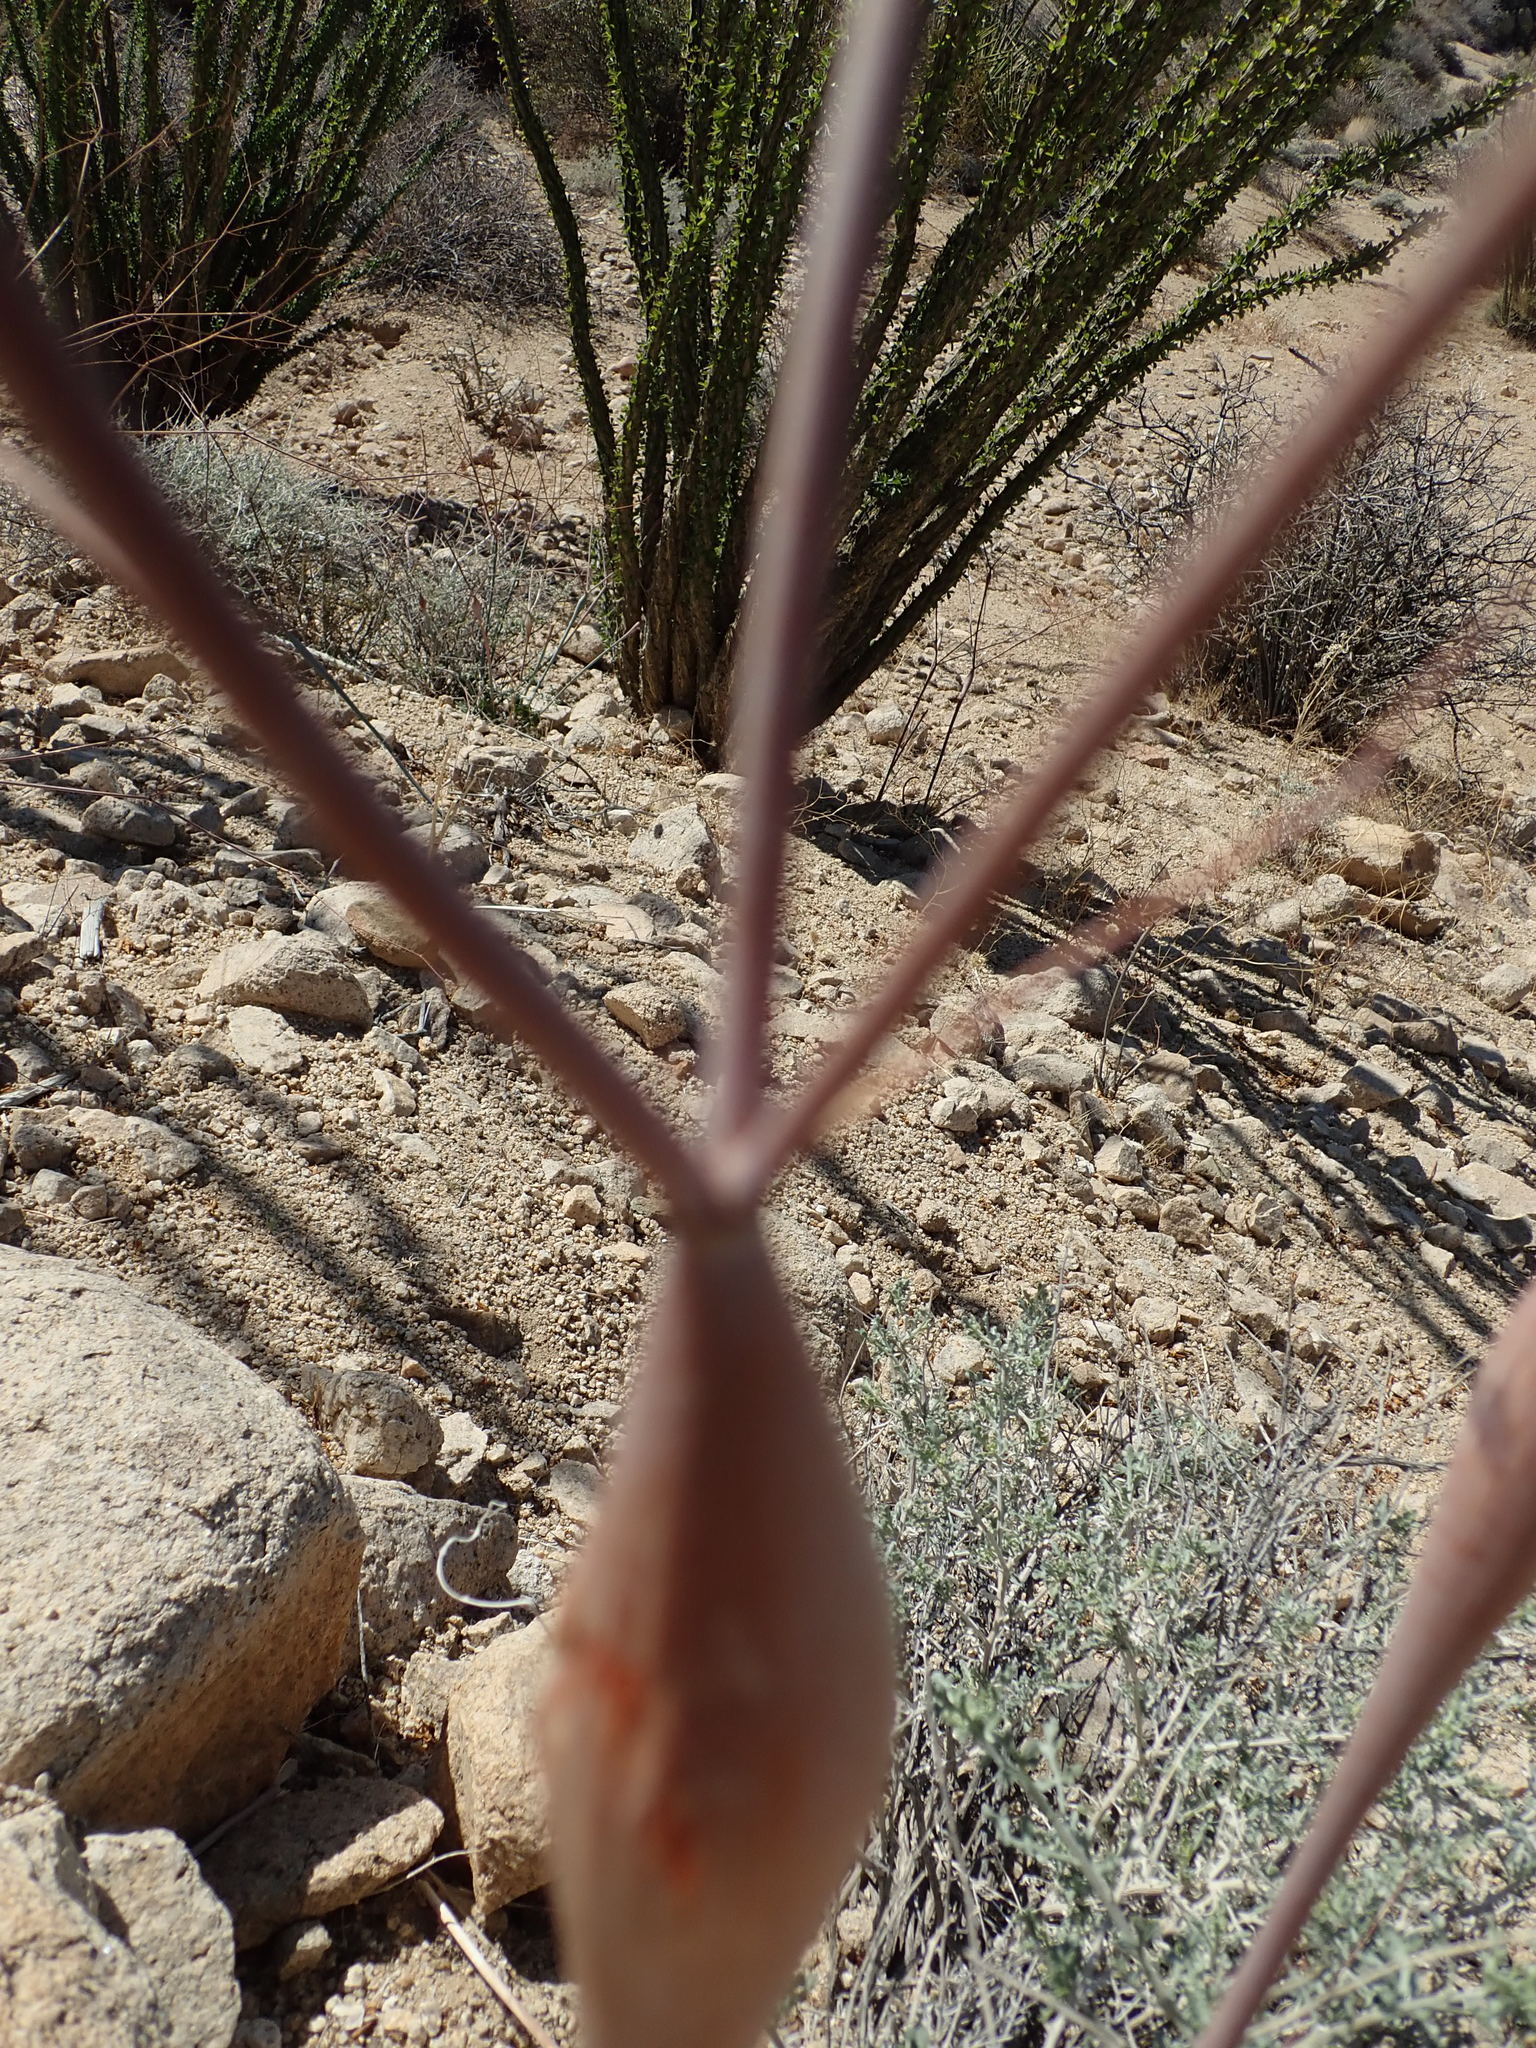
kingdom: Plantae
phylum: Tracheophyta
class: Magnoliopsida
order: Caryophyllales
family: Polygonaceae
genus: Eriogonum
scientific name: Eriogonum inflatum
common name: Desert trumpet
